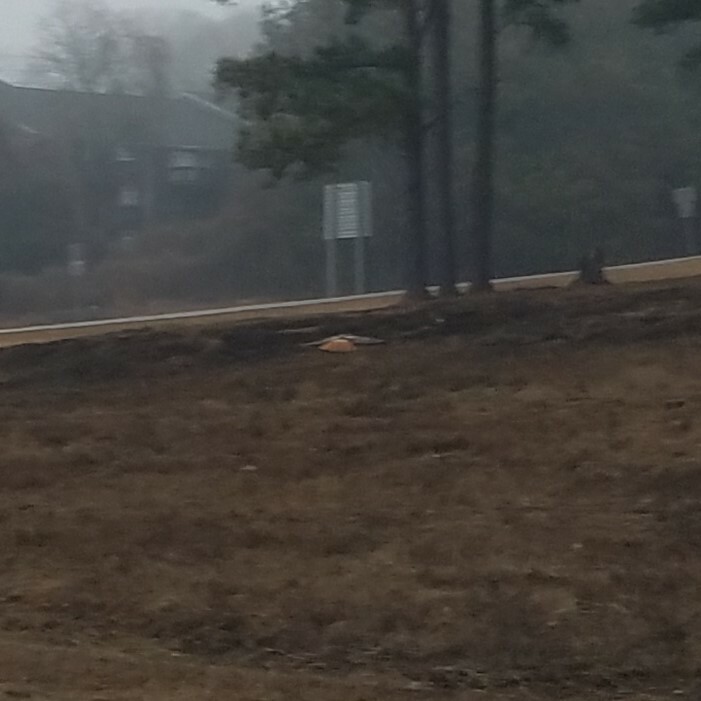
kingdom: Animalia
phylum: Chordata
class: Aves
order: Accipitriformes
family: Accipitridae
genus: Buteo
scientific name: Buteo jamaicensis
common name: Red-tailed hawk
